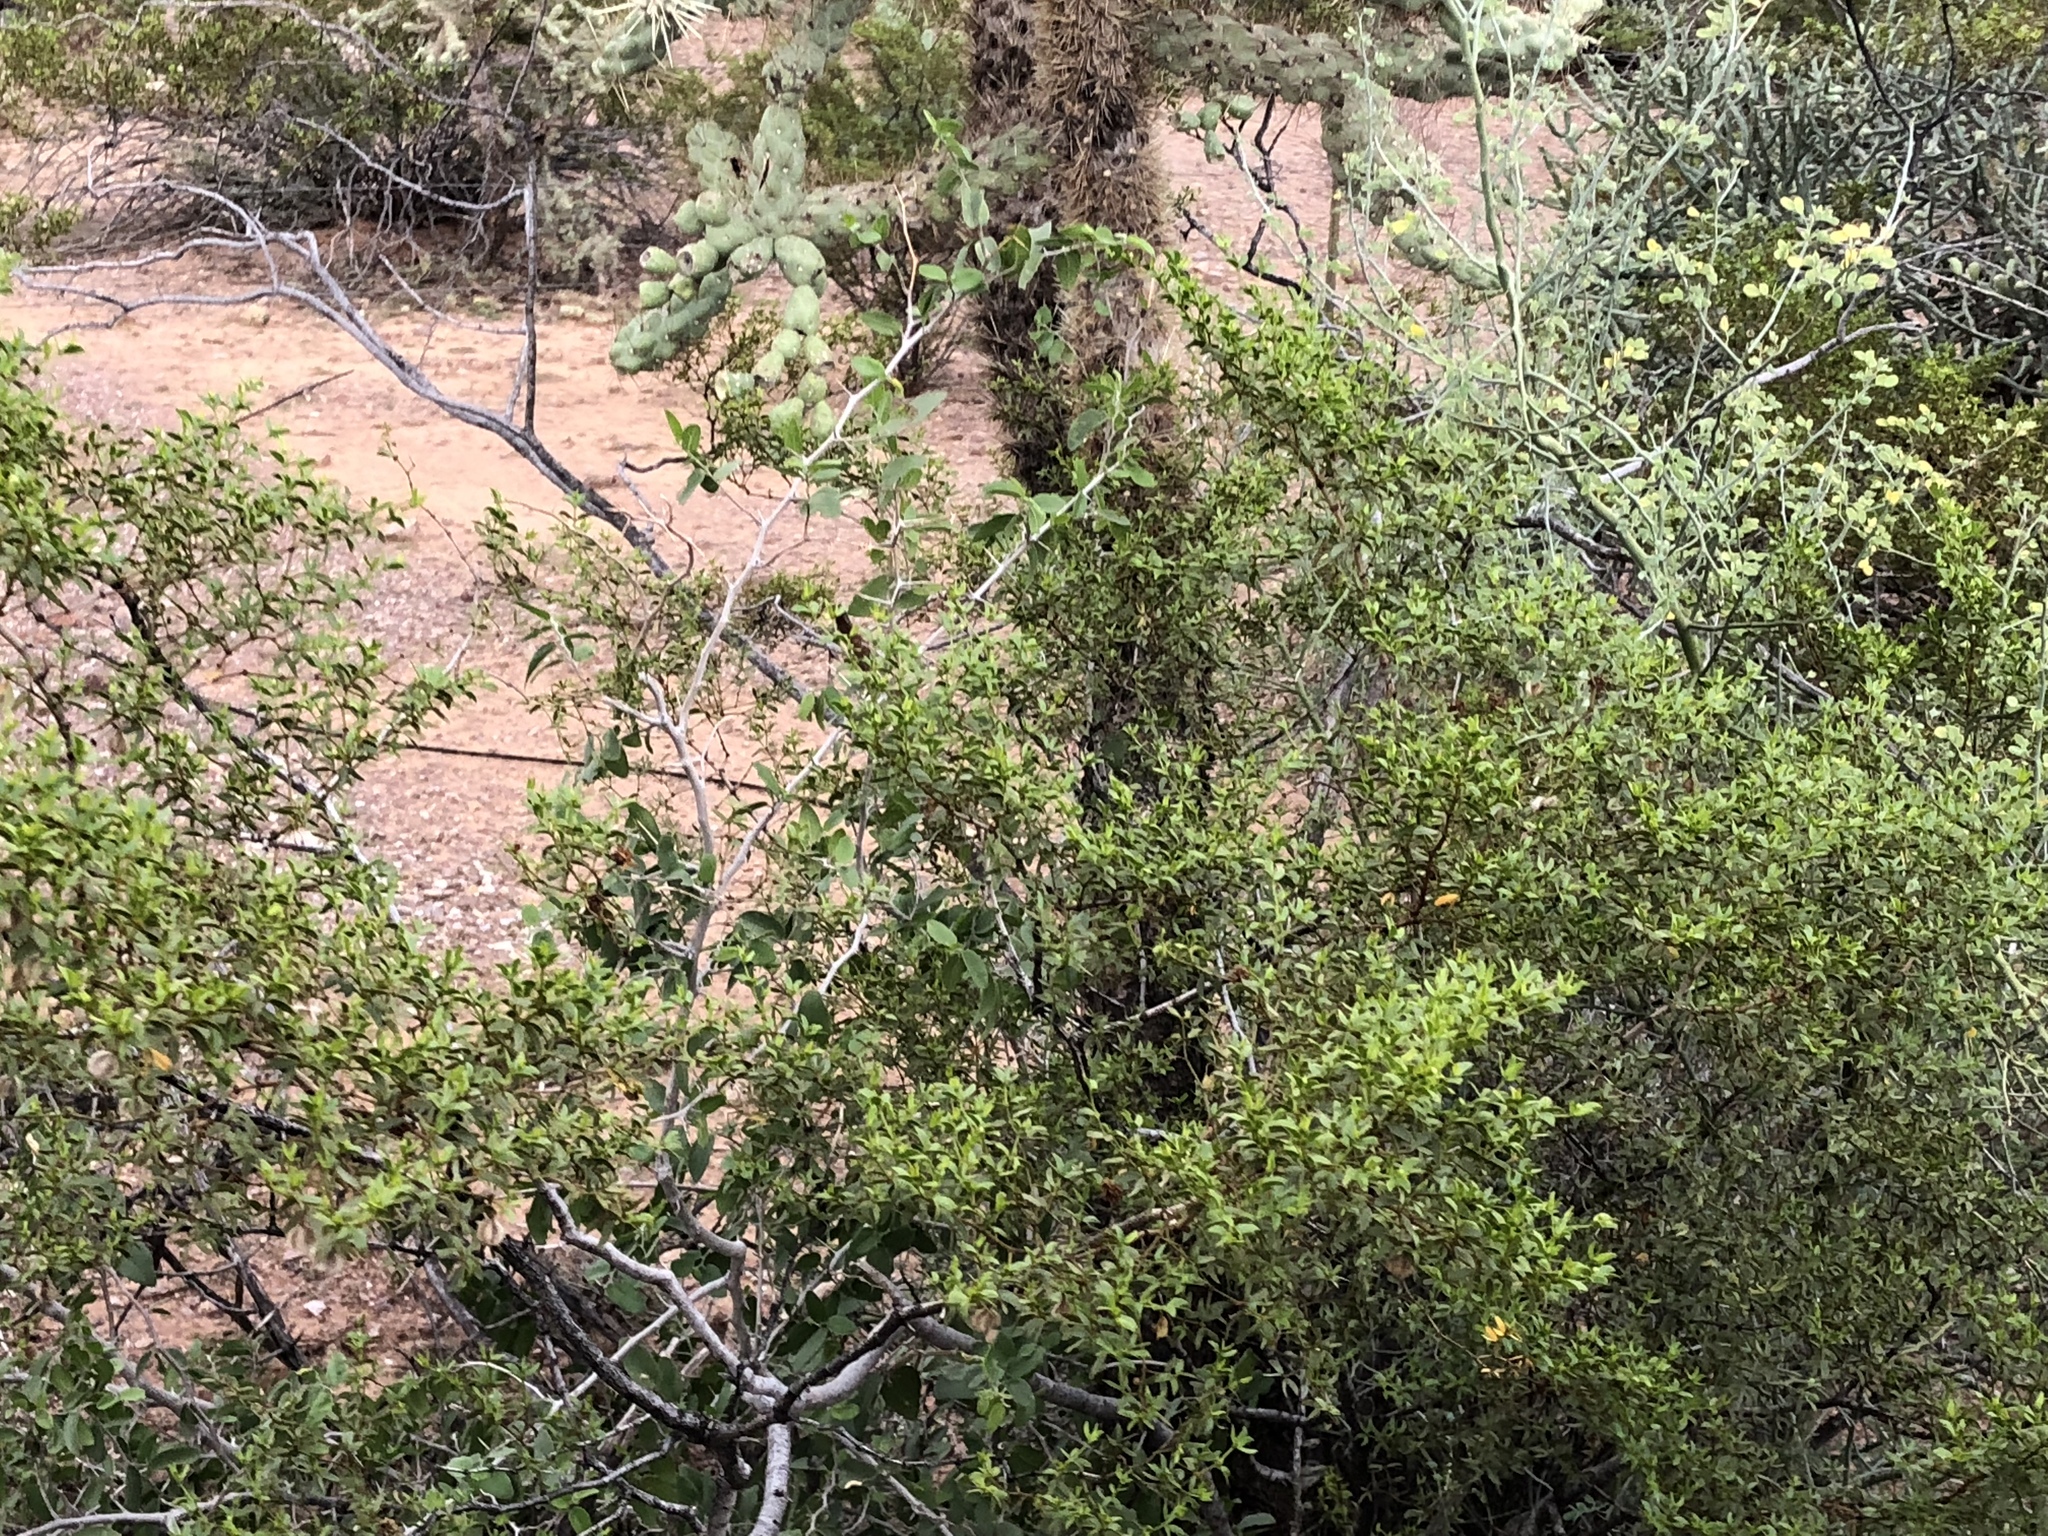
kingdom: Plantae
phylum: Tracheophyta
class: Magnoliopsida
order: Zygophyllales
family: Zygophyllaceae
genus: Larrea
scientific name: Larrea tridentata
